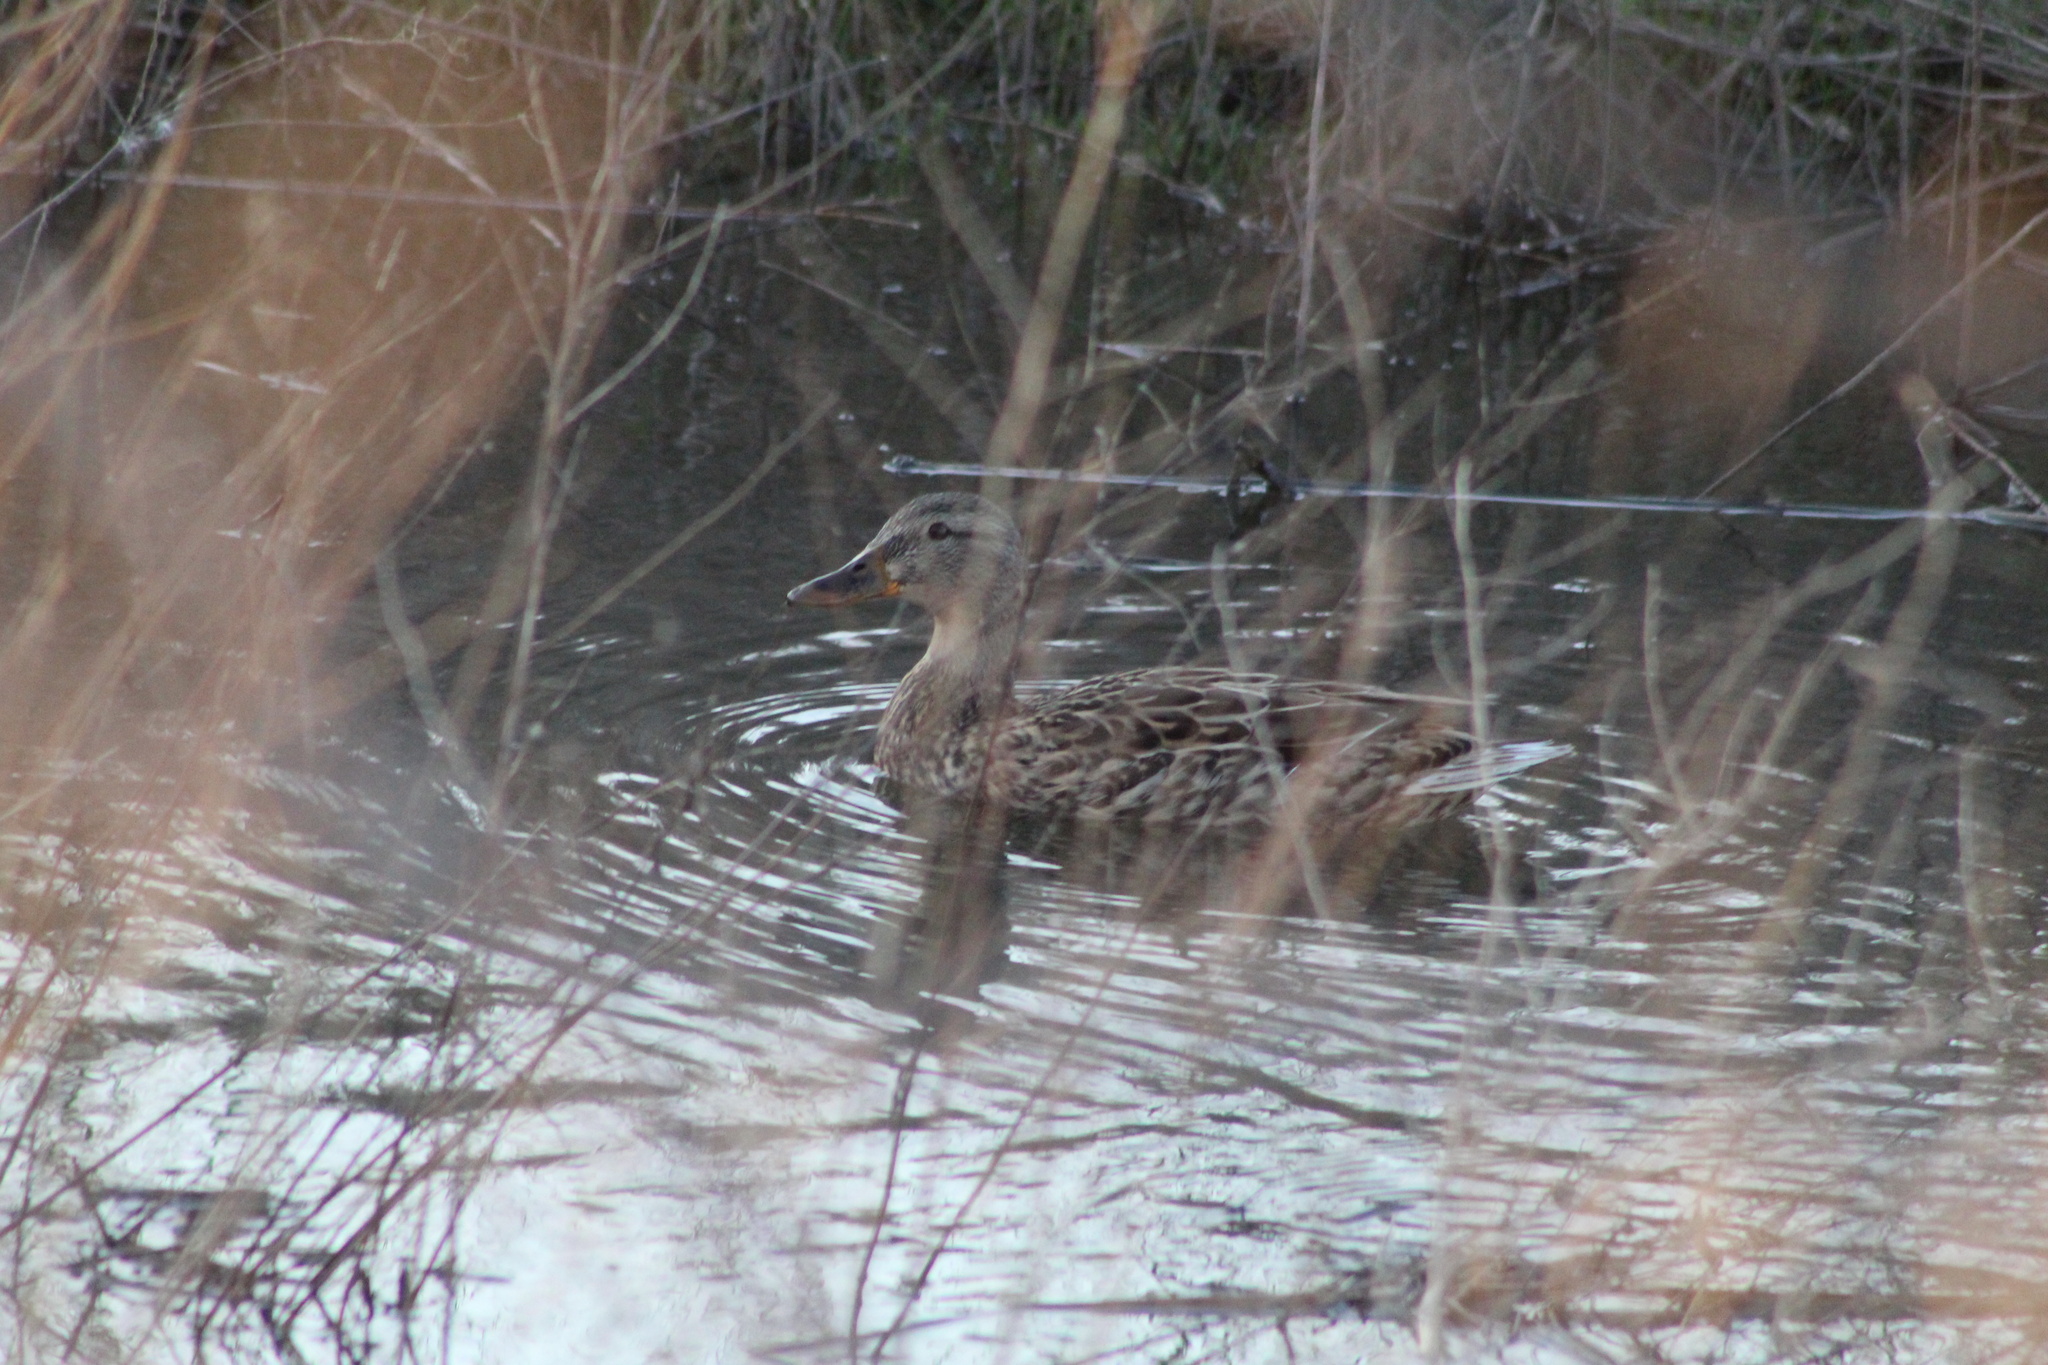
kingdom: Animalia
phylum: Chordata
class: Aves
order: Anseriformes
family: Anatidae
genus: Anas
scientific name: Anas platyrhynchos
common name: Mallard
